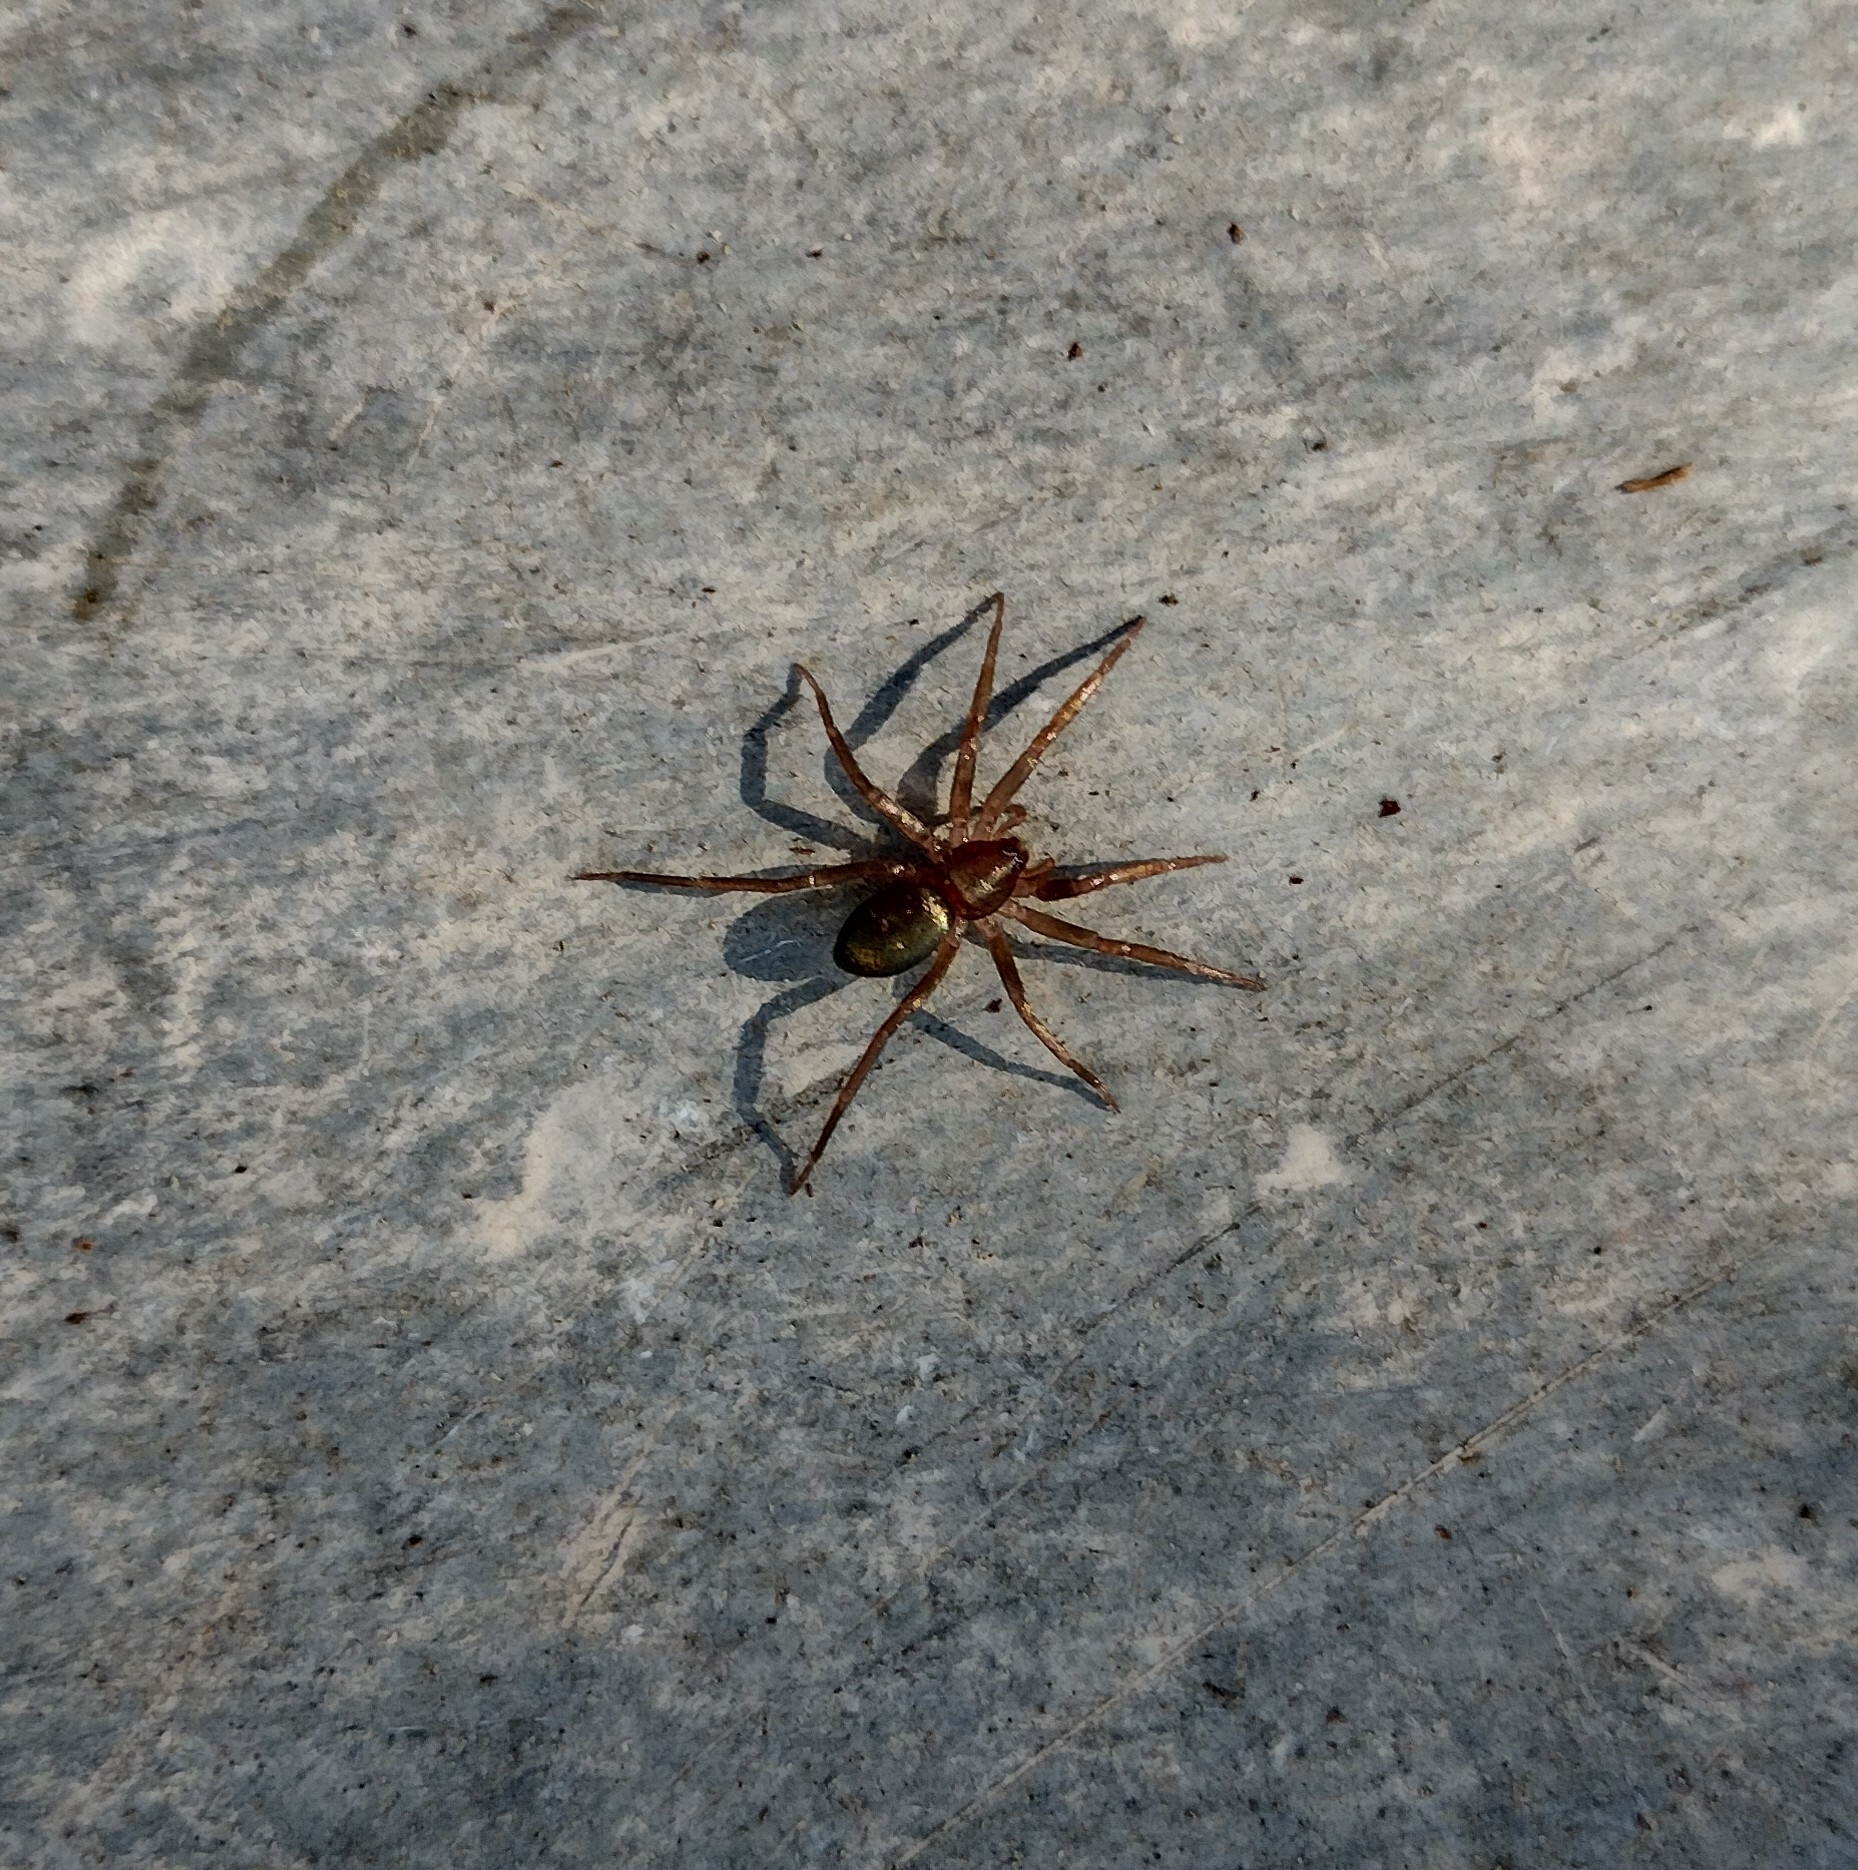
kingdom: Animalia
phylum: Arthropoda
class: Arachnida
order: Araneae
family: Liocranidae
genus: Sagana
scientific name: Sagana rutilans
